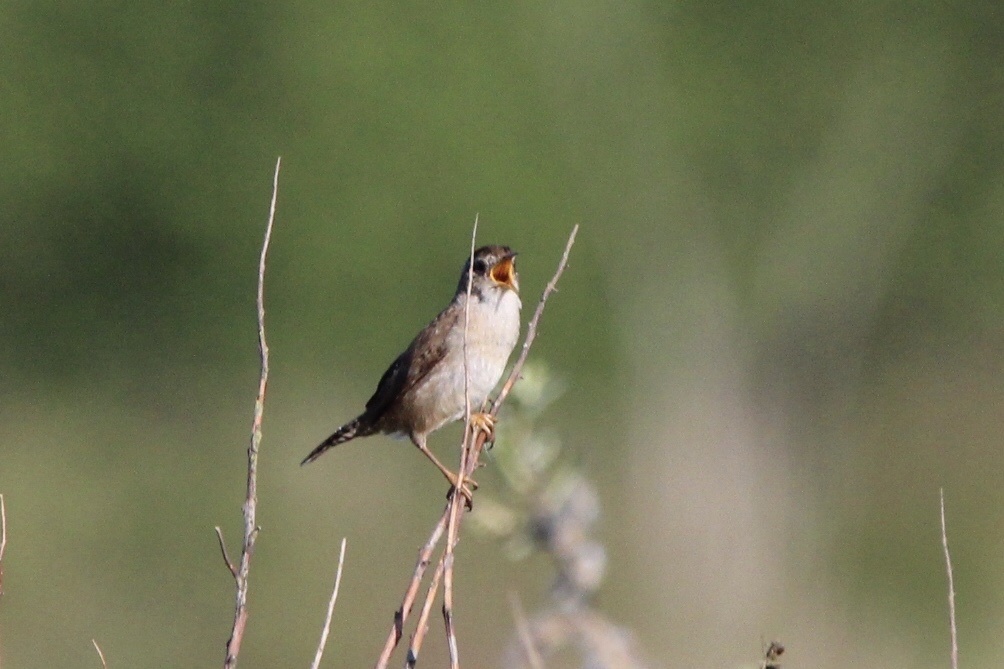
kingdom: Animalia
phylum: Chordata
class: Aves
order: Passeriformes
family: Troglodytidae
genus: Cistothorus
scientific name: Cistothorus palustris
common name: Marsh wren
